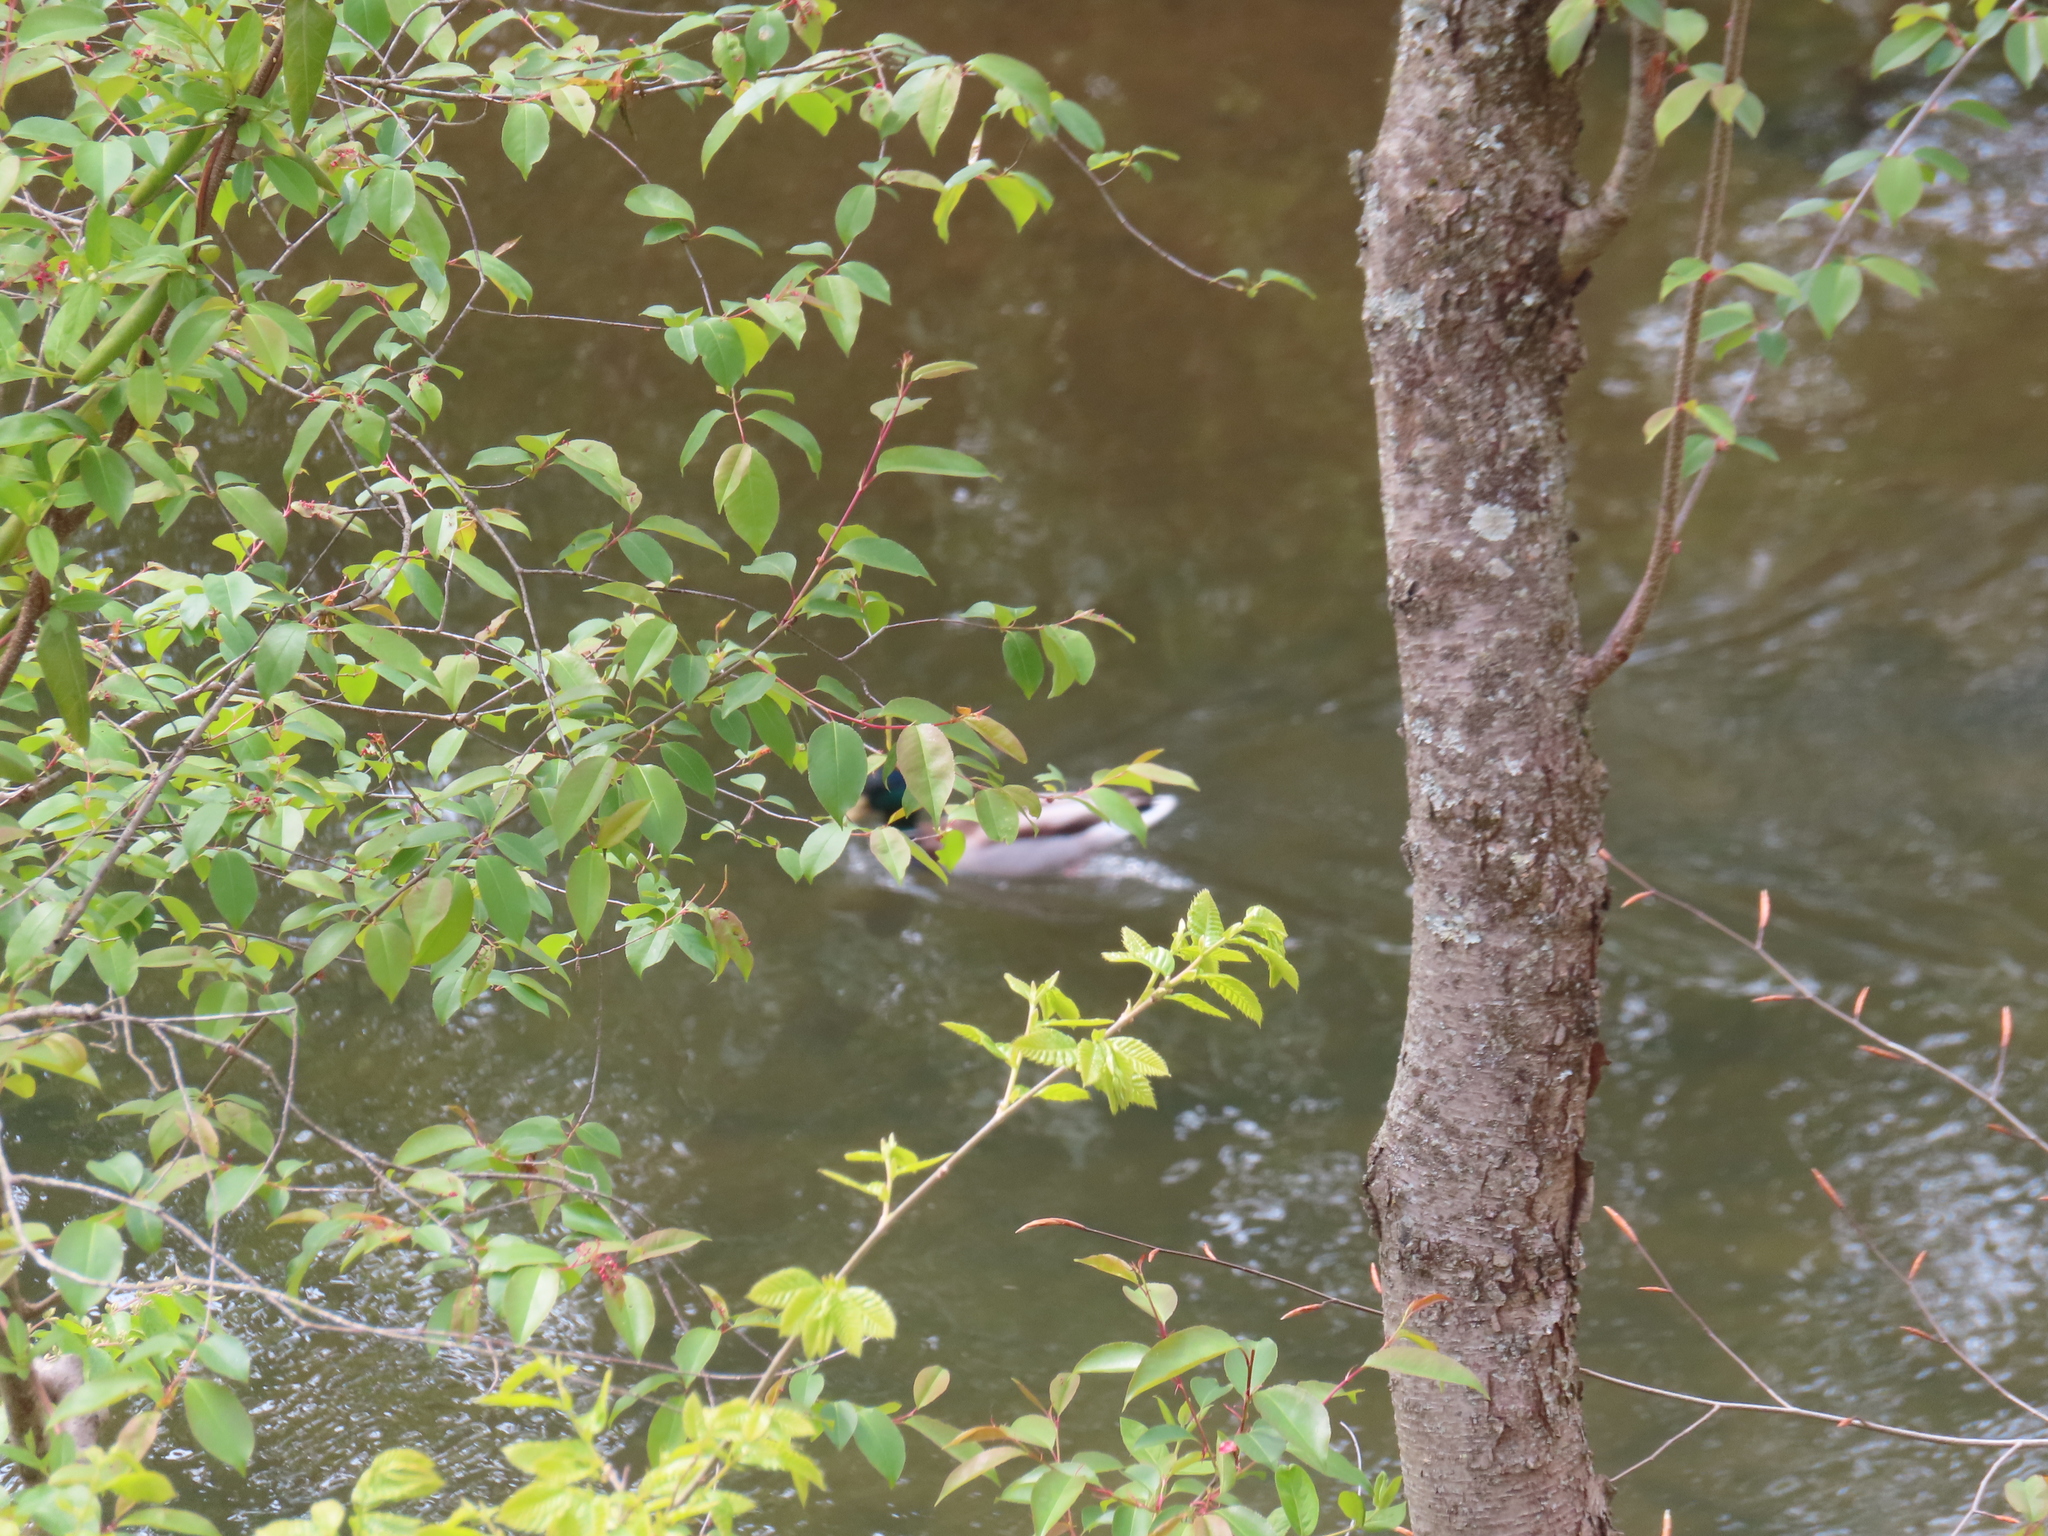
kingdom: Animalia
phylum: Chordata
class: Aves
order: Anseriformes
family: Anatidae
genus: Anas
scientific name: Anas platyrhynchos
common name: Mallard
